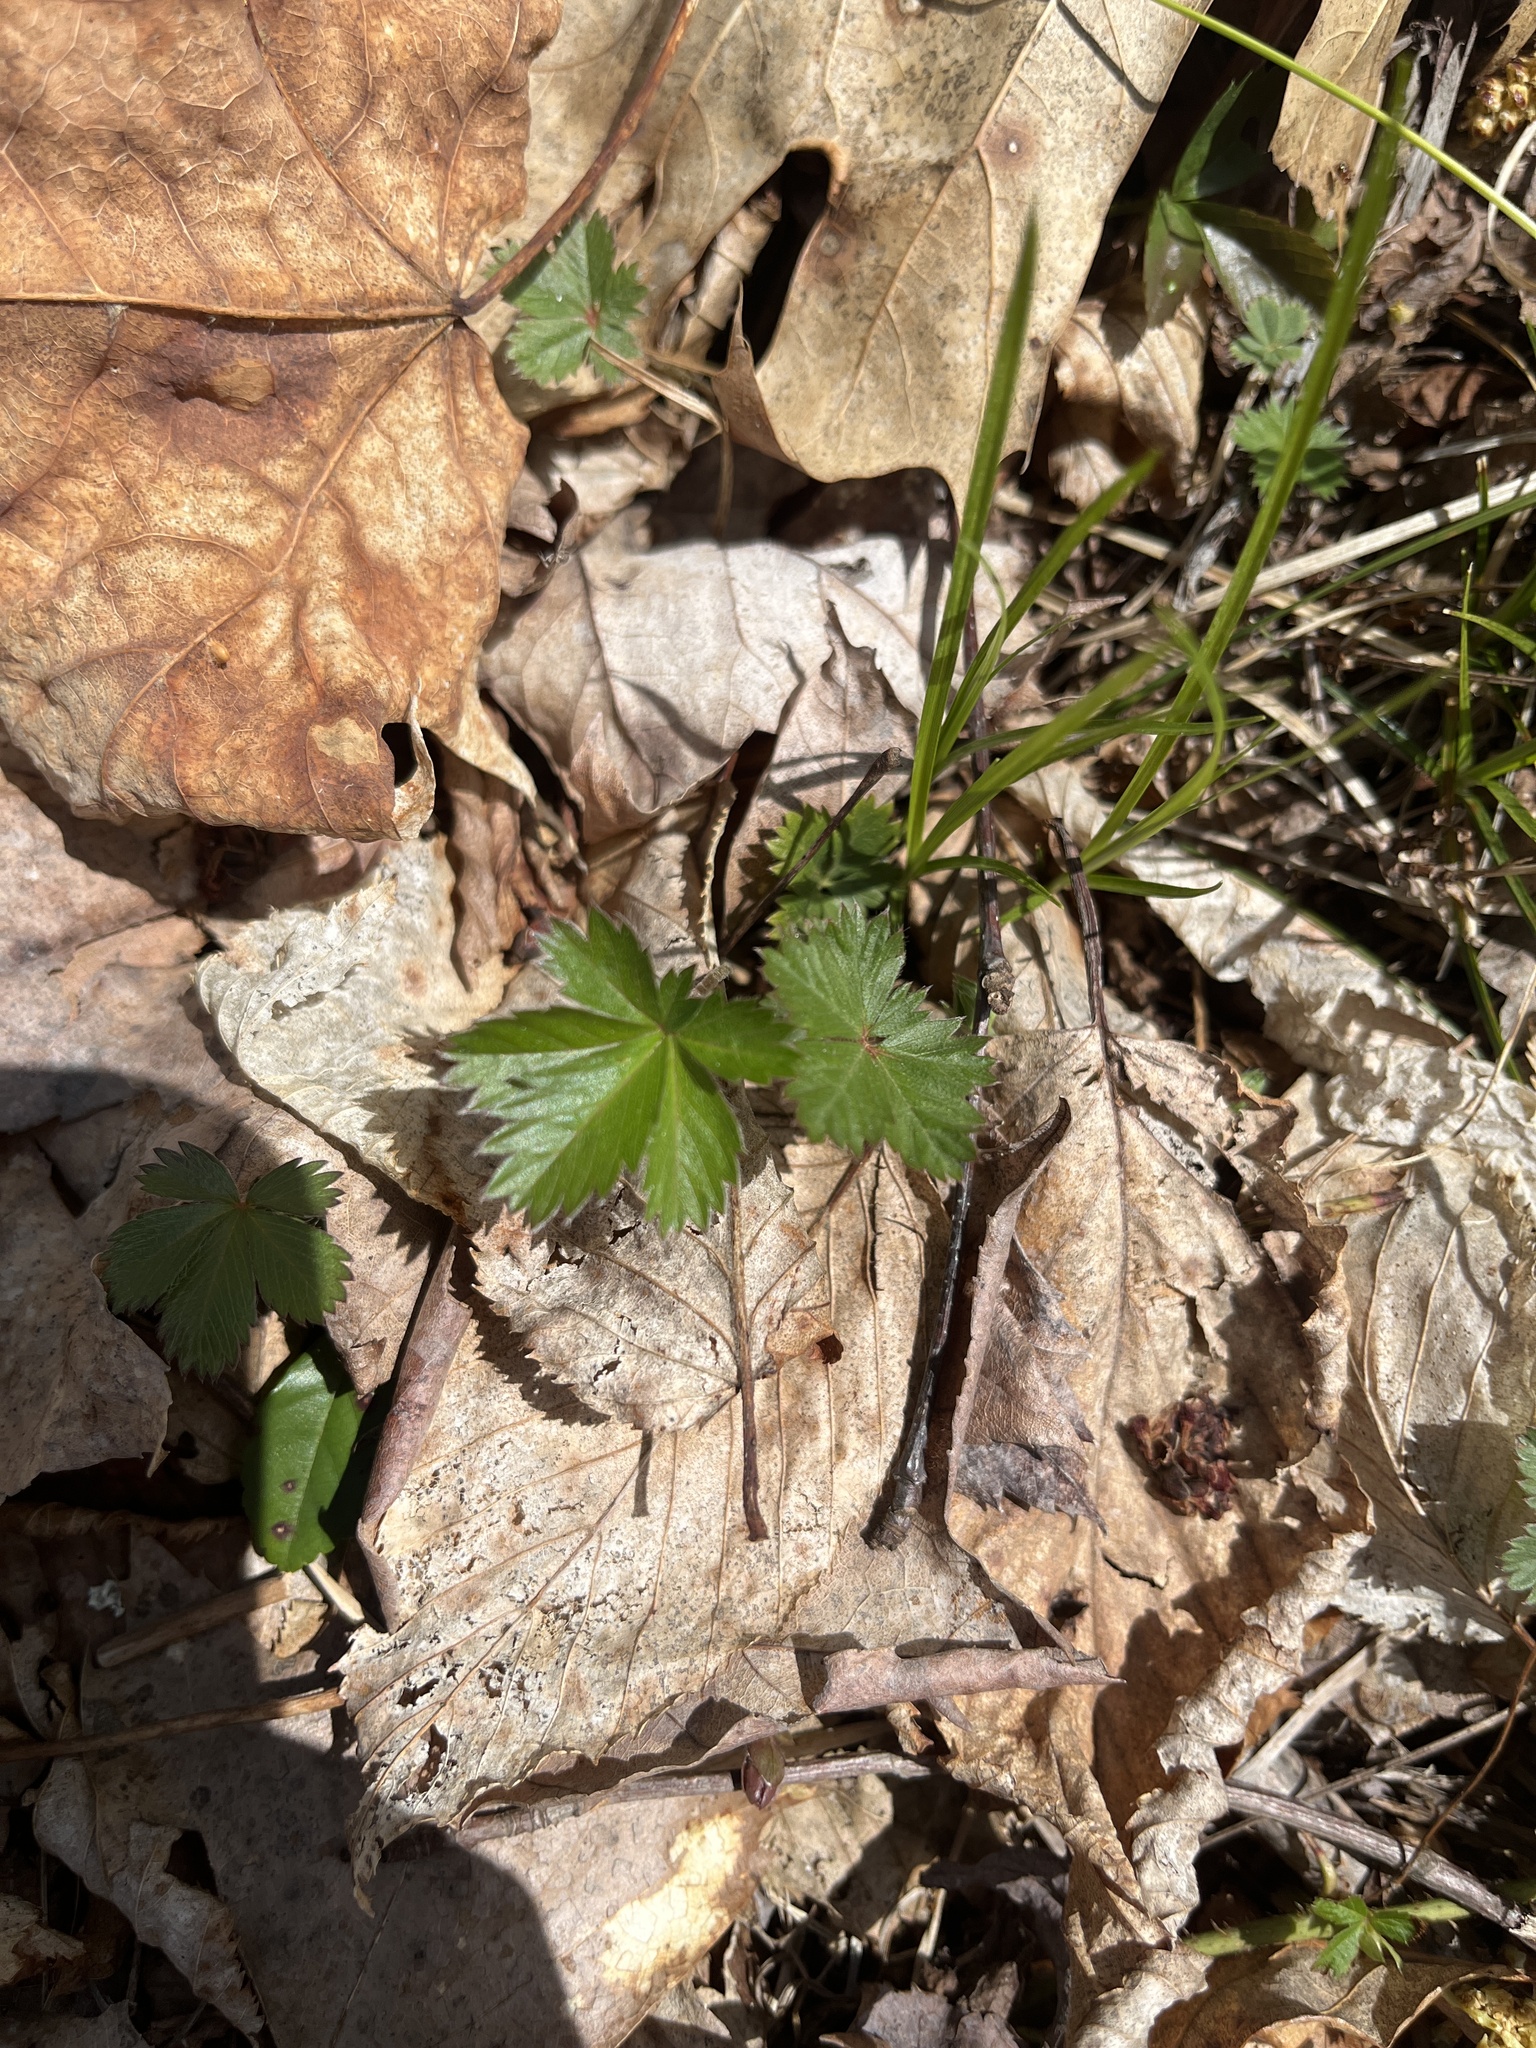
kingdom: Plantae
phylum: Tracheophyta
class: Magnoliopsida
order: Rosales
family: Rosaceae
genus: Potentilla
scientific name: Potentilla canadensis
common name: Canada cinquefoil
